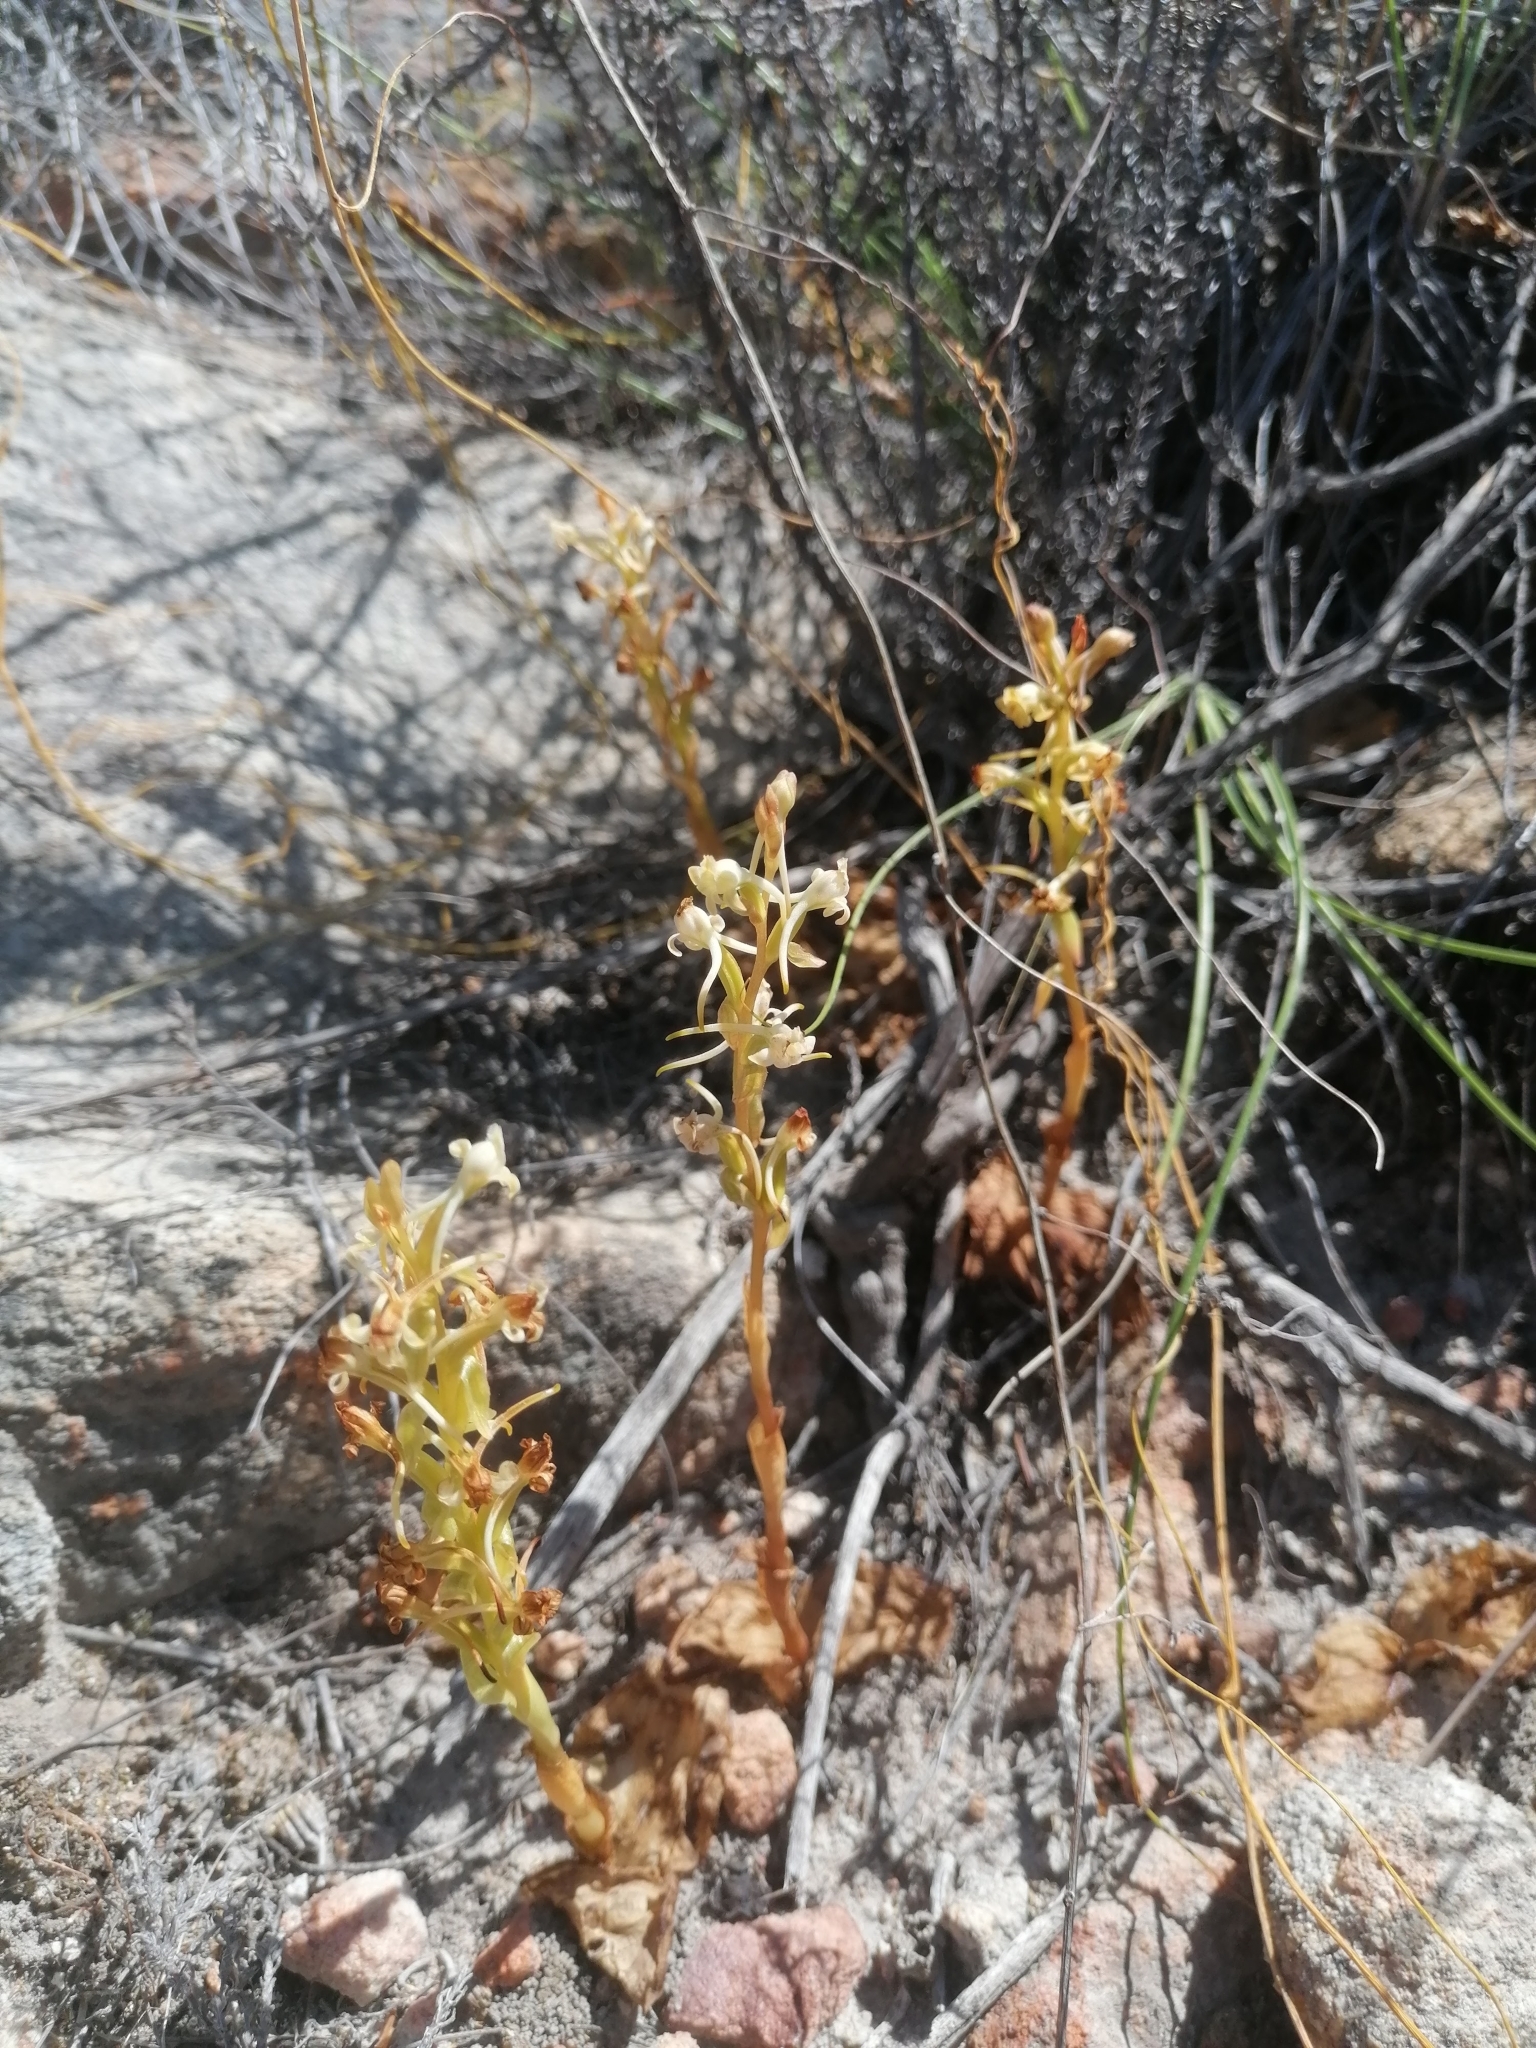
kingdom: Plantae
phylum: Tracheophyta
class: Liliopsida
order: Asparagales
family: Orchidaceae
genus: Satyrium
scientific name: Satyrium humile
